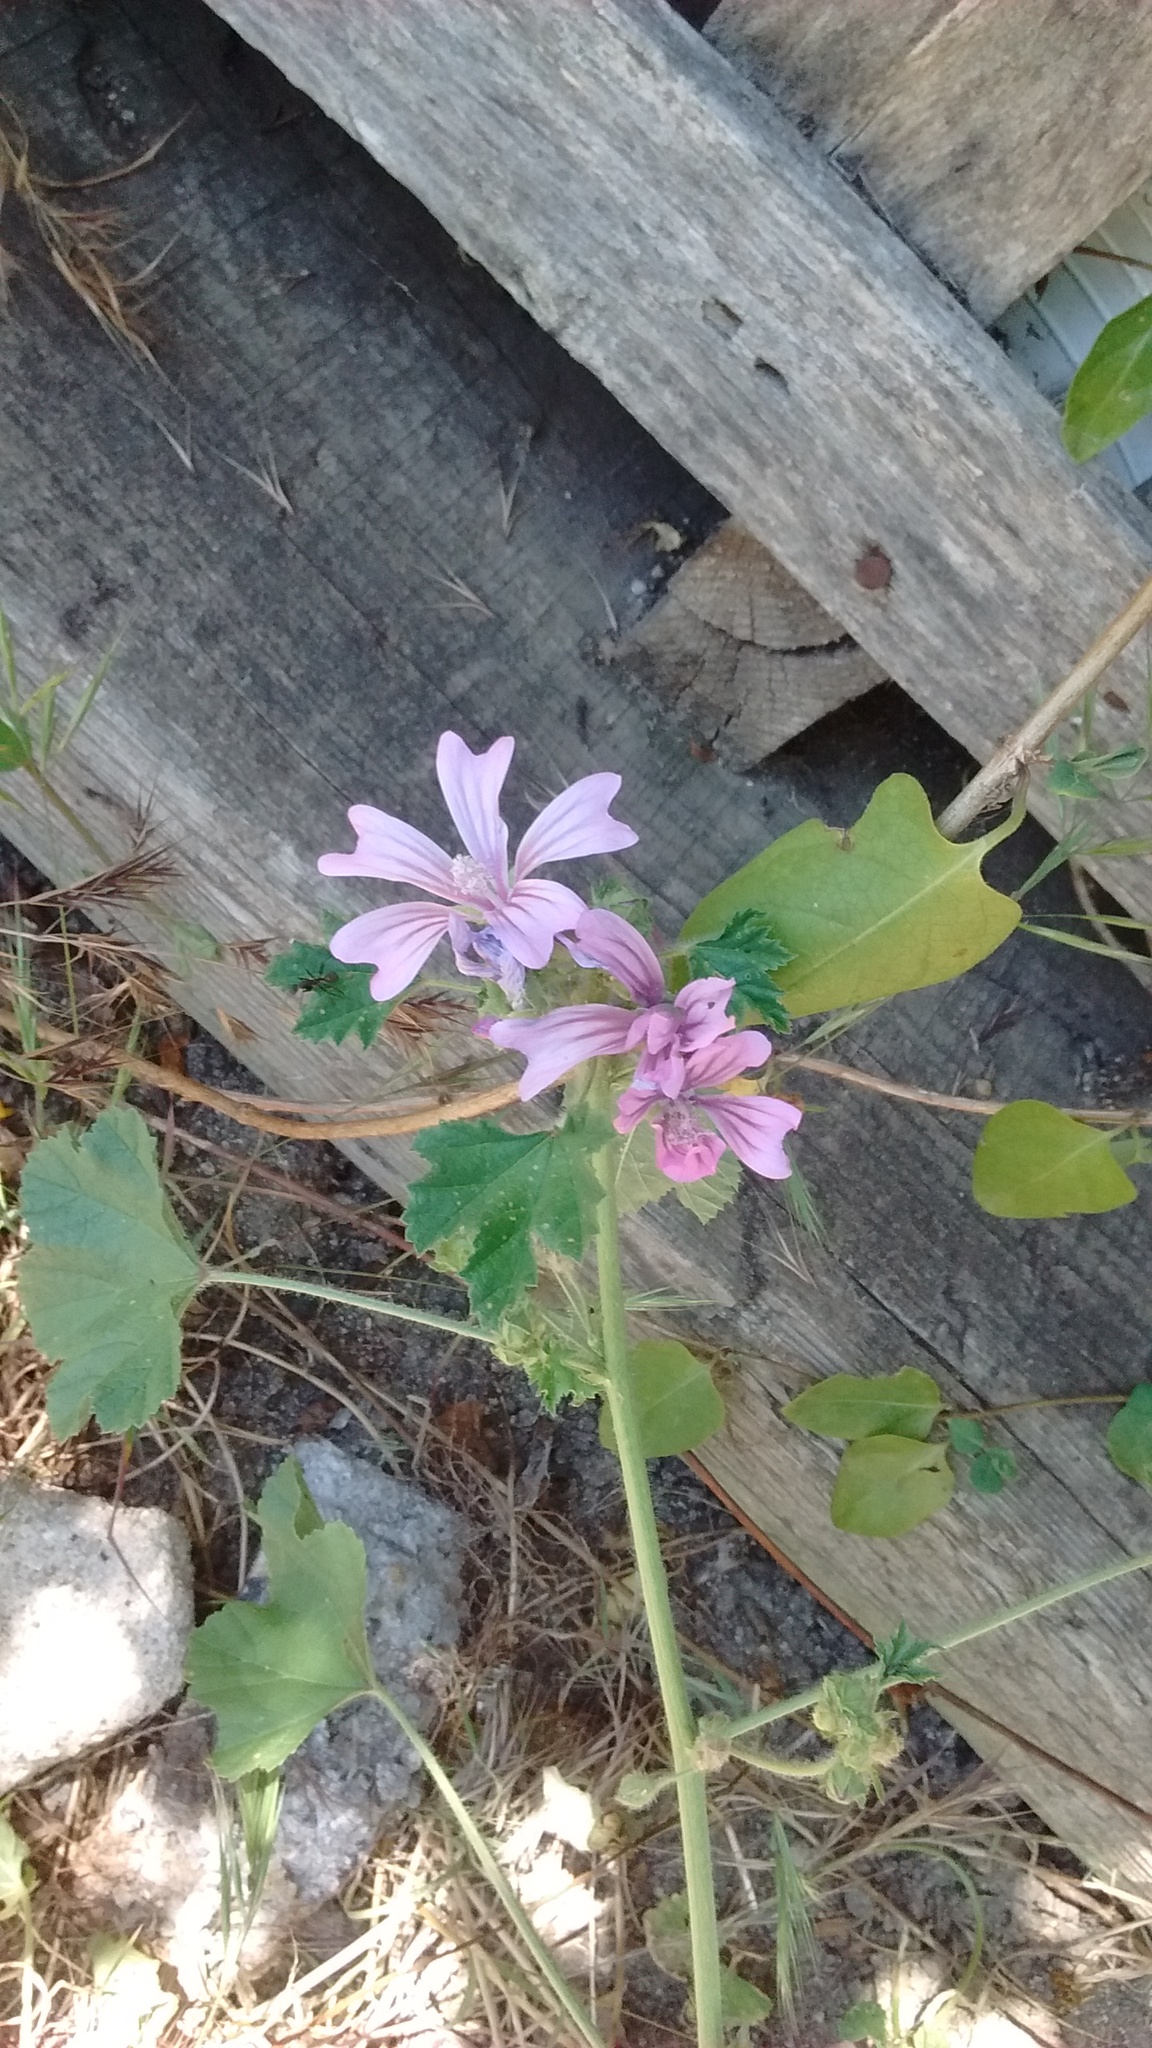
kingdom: Plantae
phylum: Tracheophyta
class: Magnoliopsida
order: Malvales
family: Malvaceae
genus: Malva
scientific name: Malva sylvestris
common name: Common mallow
